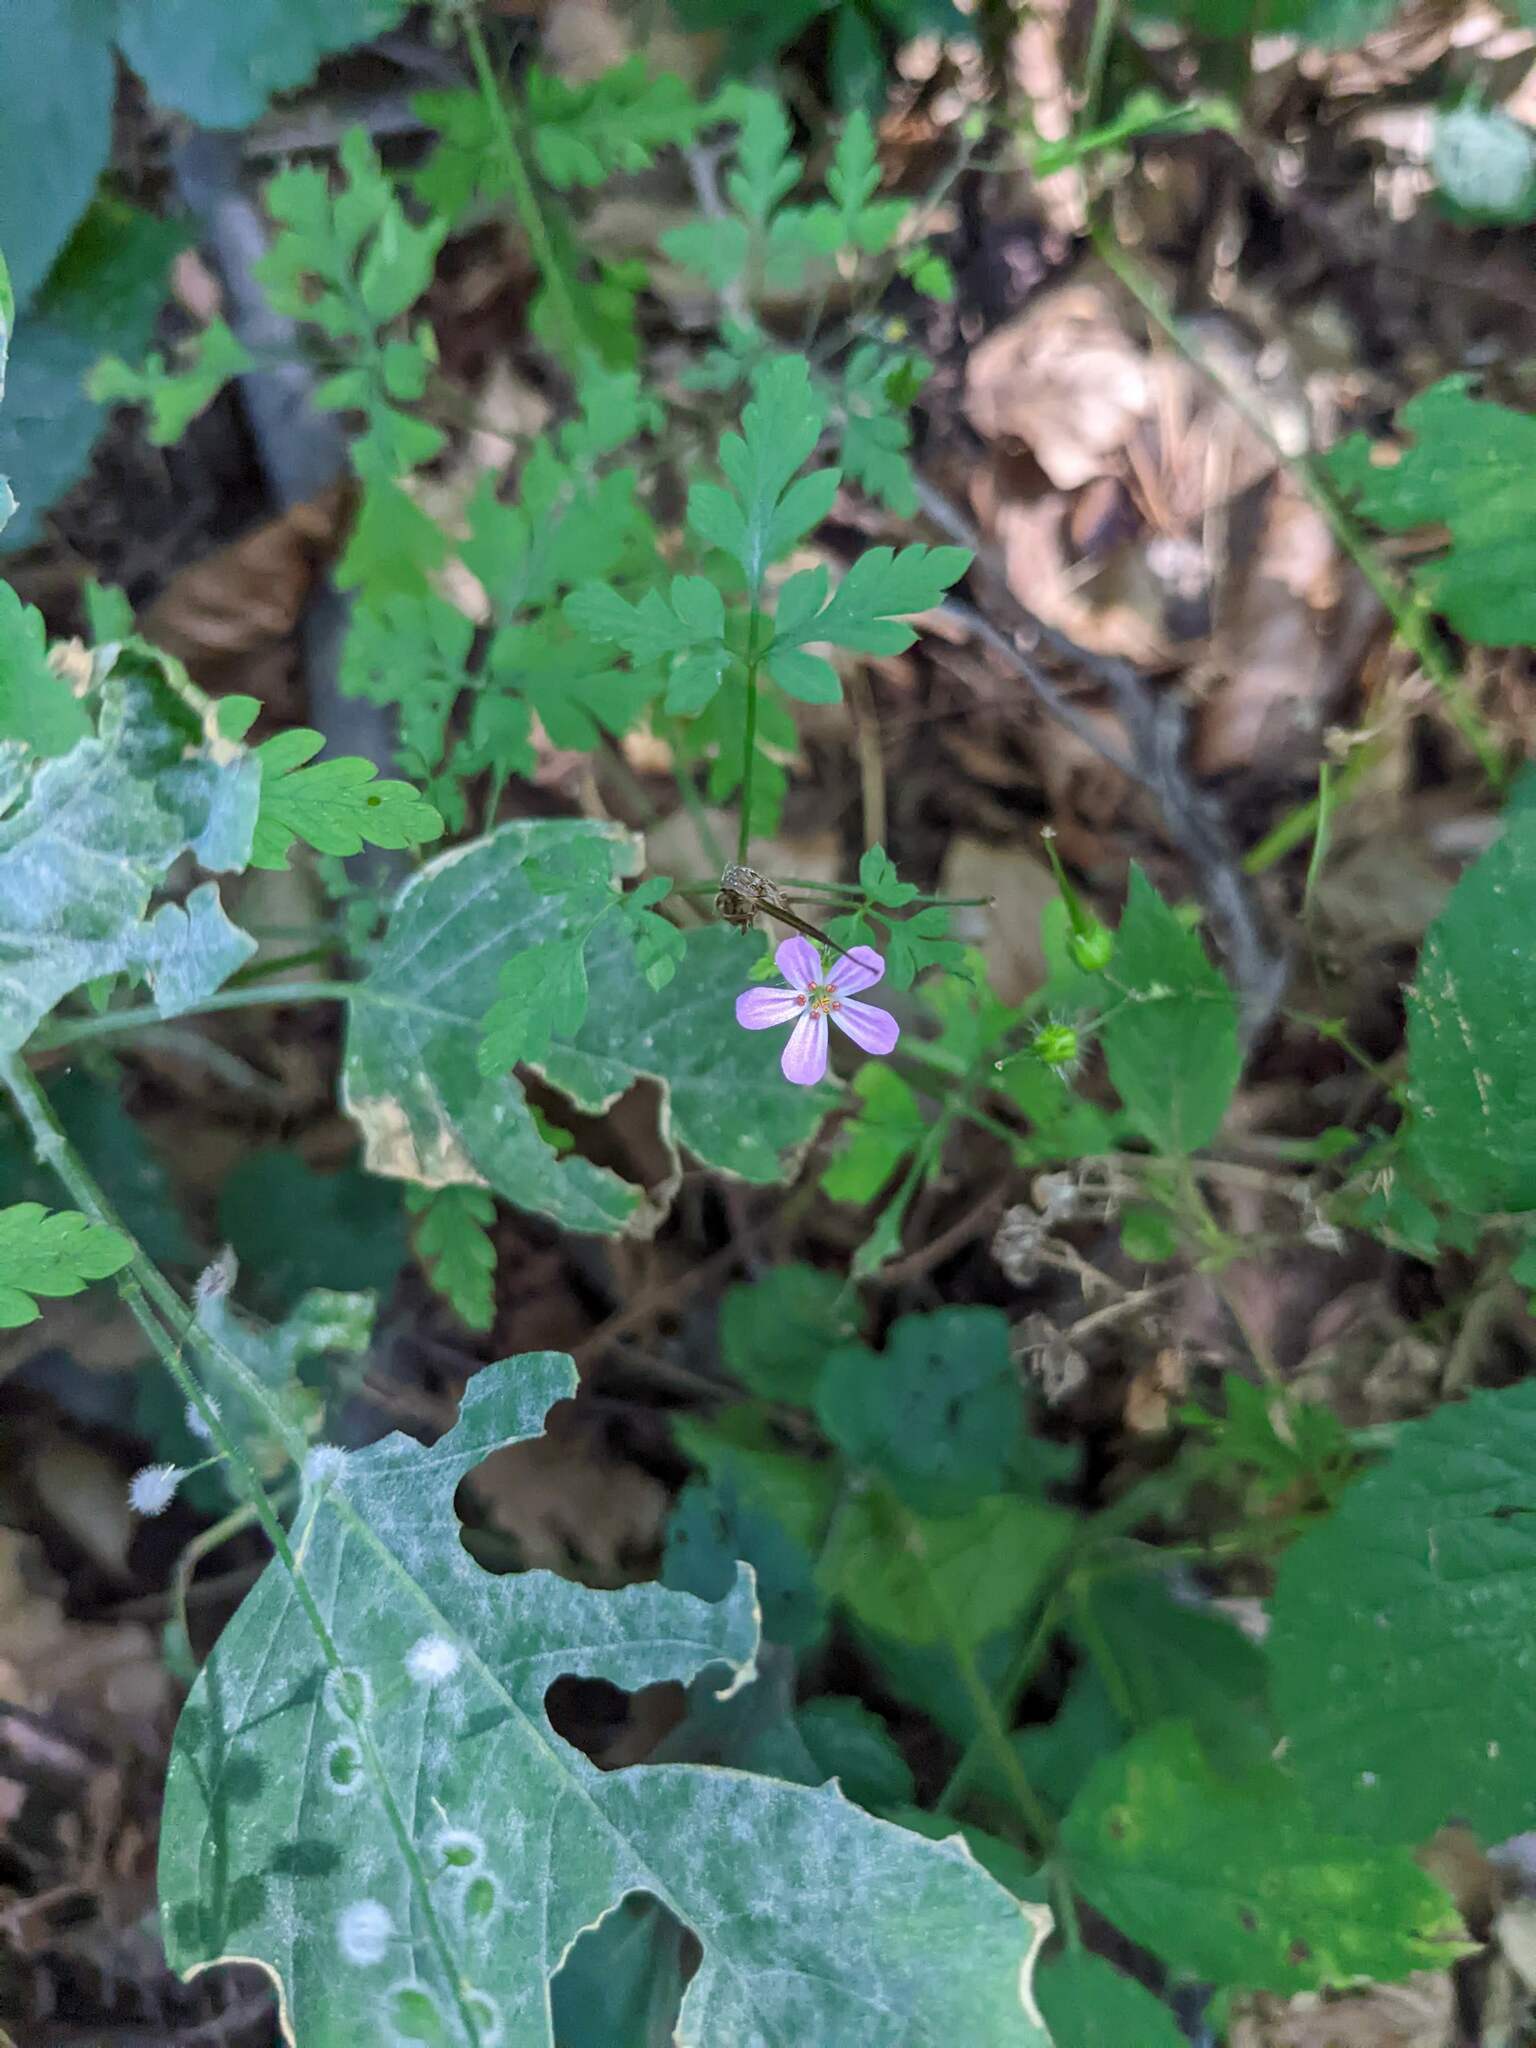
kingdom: Plantae
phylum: Tracheophyta
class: Magnoliopsida
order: Geraniales
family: Geraniaceae
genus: Geranium
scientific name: Geranium robertianum
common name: Herb-robert
